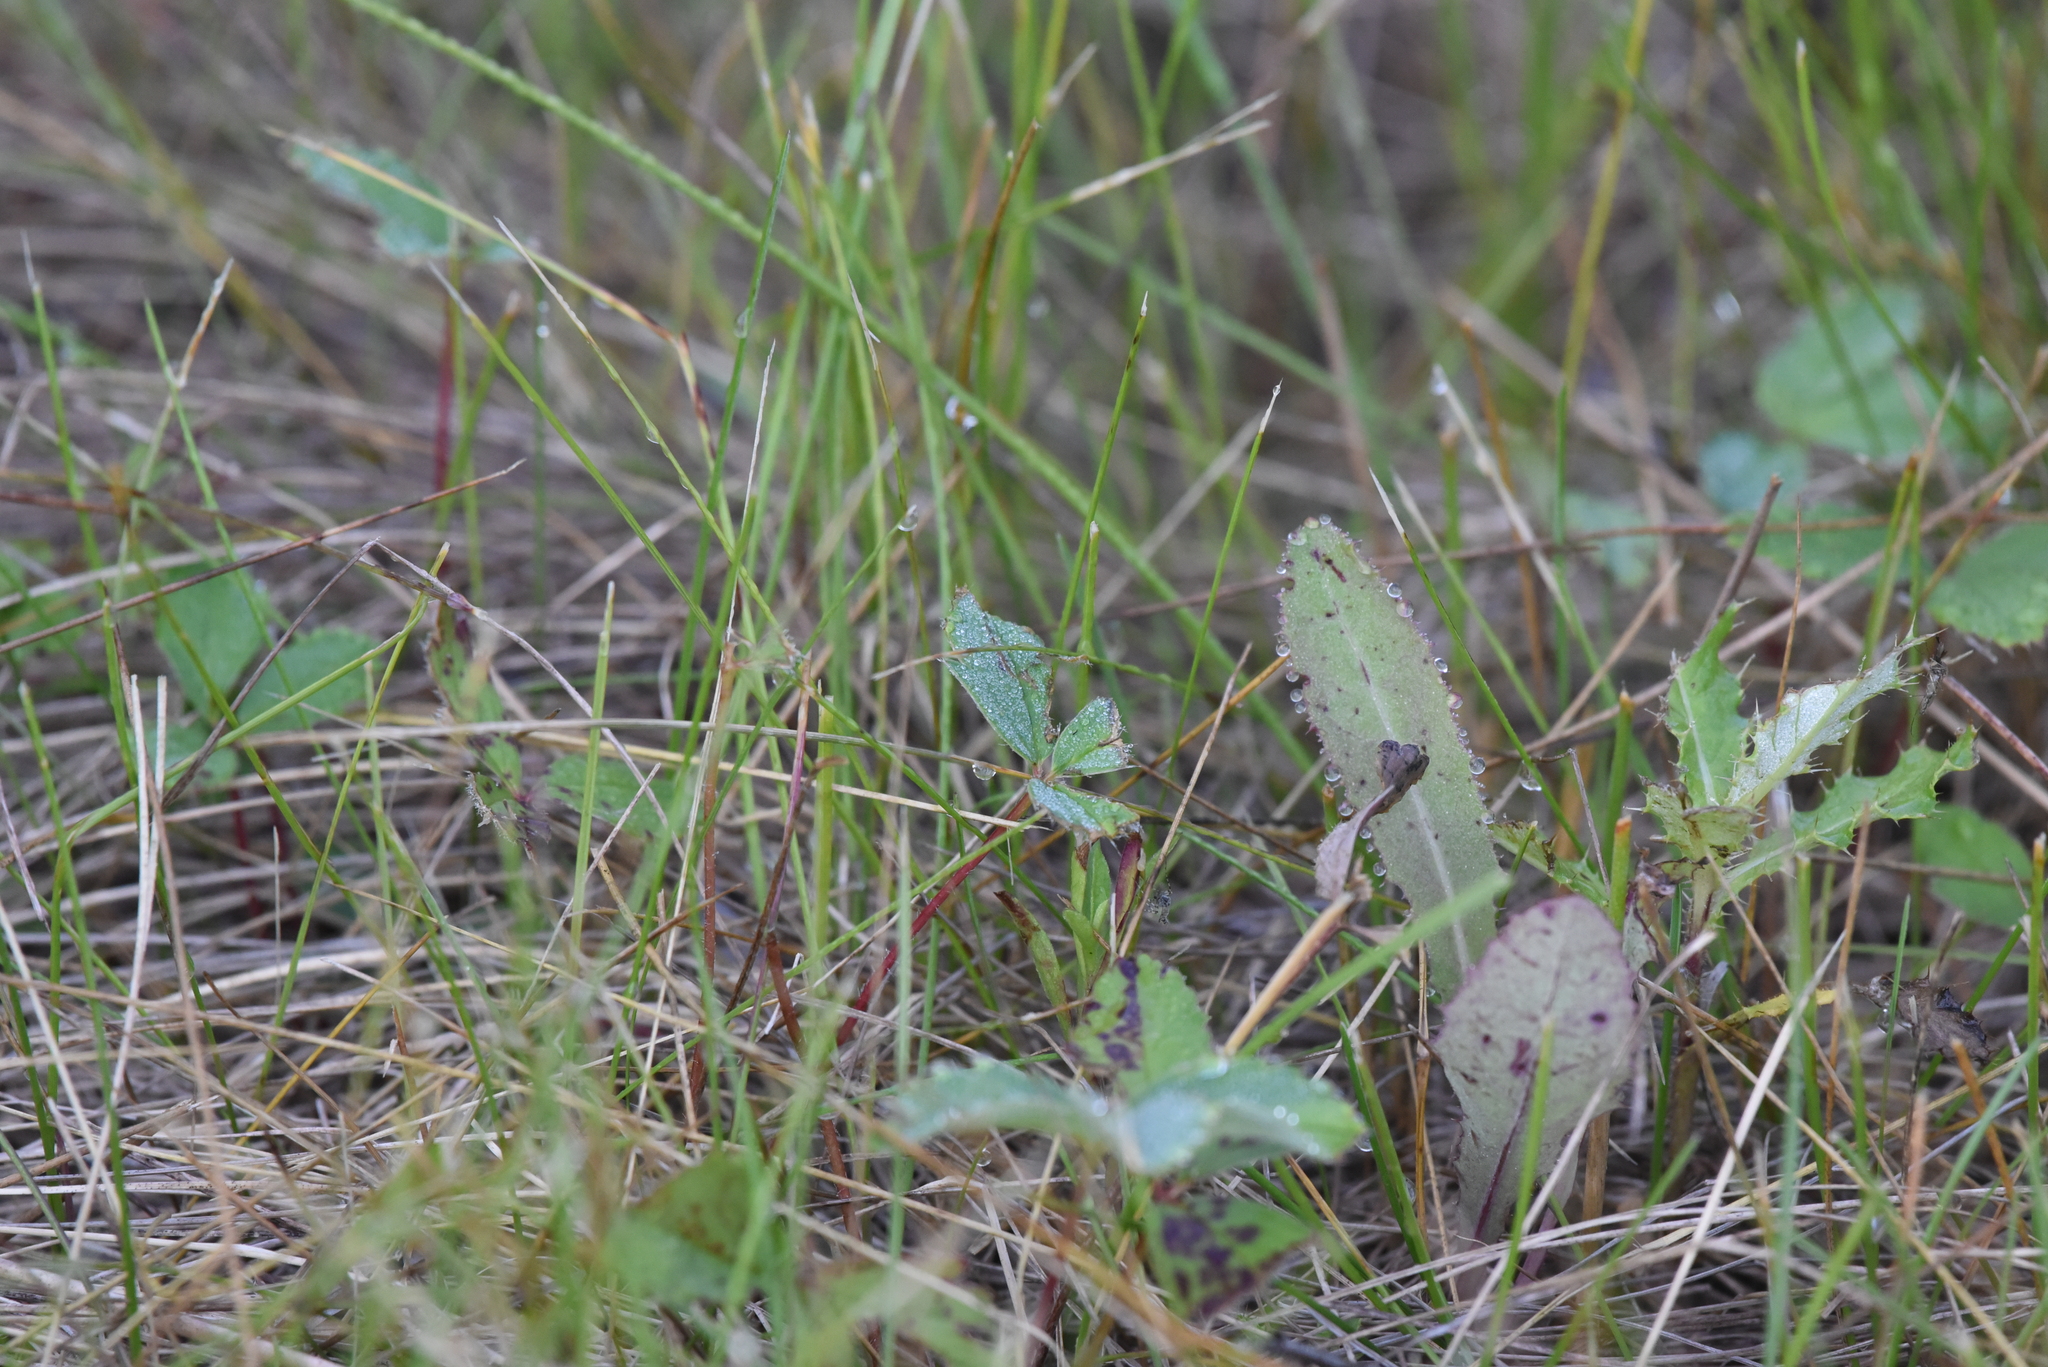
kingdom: Plantae
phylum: Tracheophyta
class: Magnoliopsida
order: Rosales
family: Rosaceae
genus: Fragaria
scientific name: Fragaria virginiana
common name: Thickleaved wild strawberry
